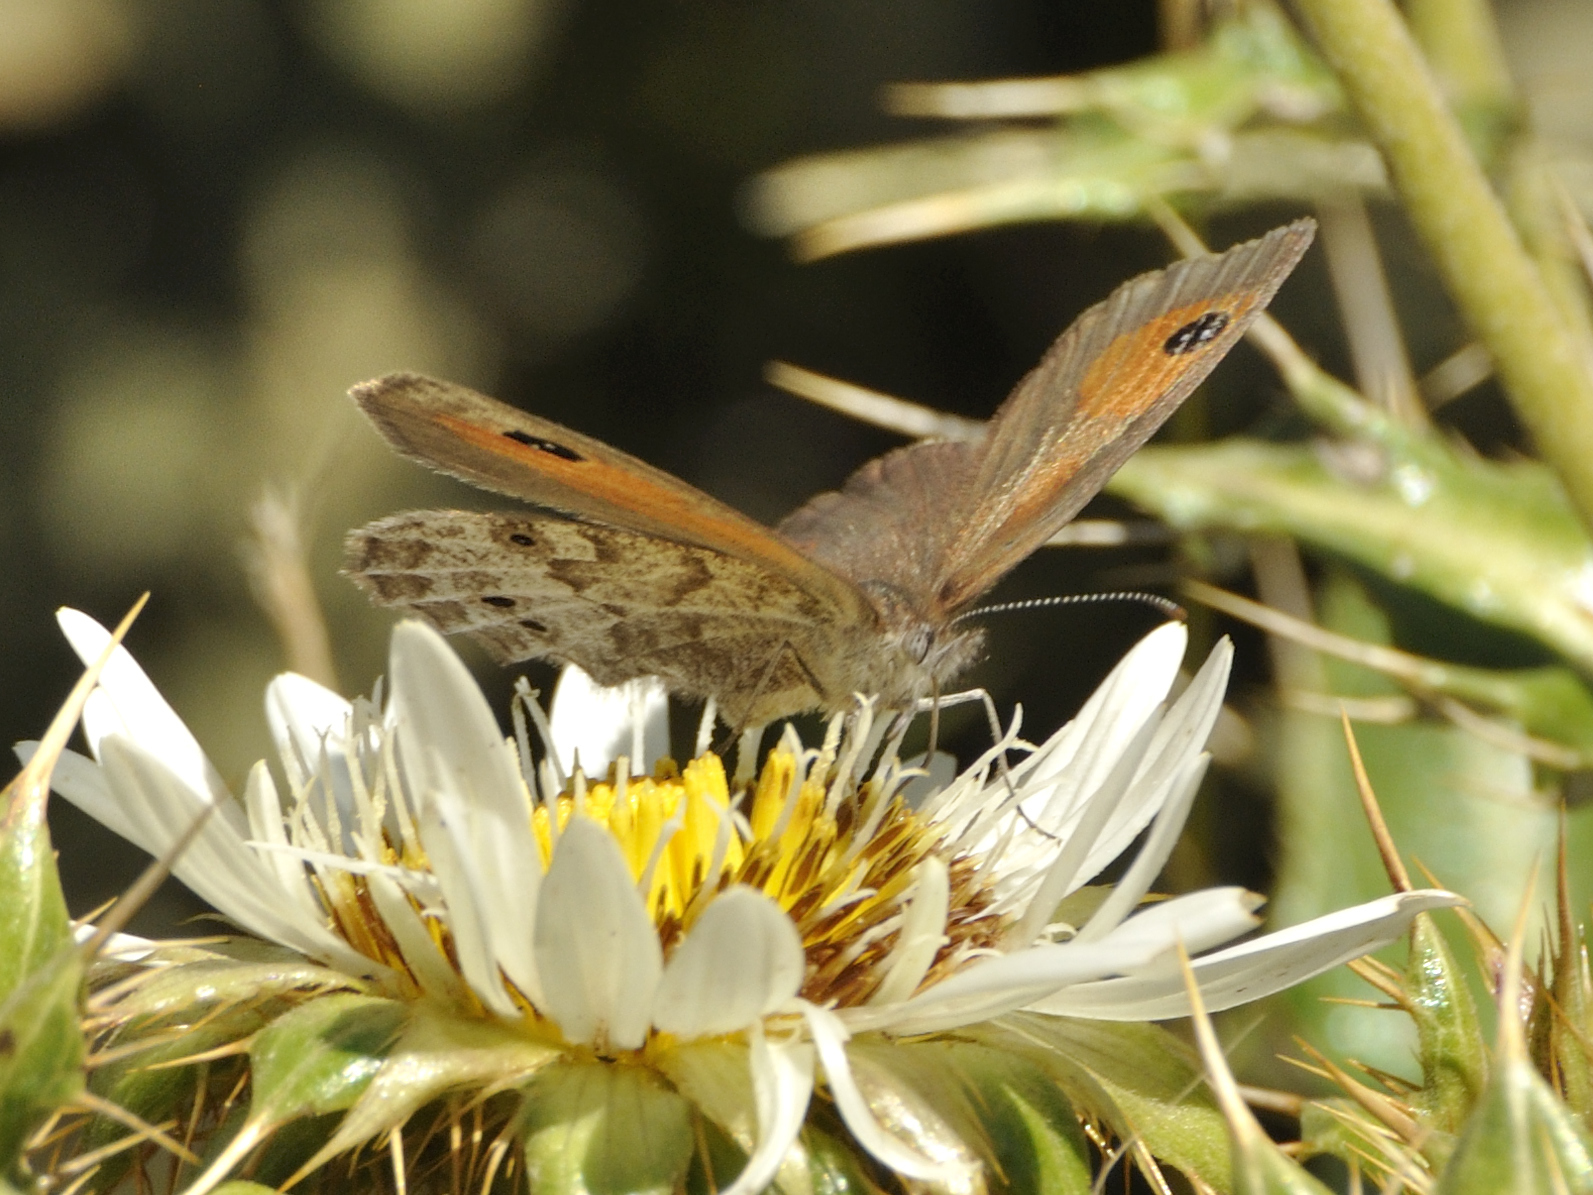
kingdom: Animalia
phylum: Arthropoda
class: Insecta
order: Lepidoptera
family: Nymphalidae
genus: Pseudonympha
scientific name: Pseudonympha magoides
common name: False silver-bottom brown
